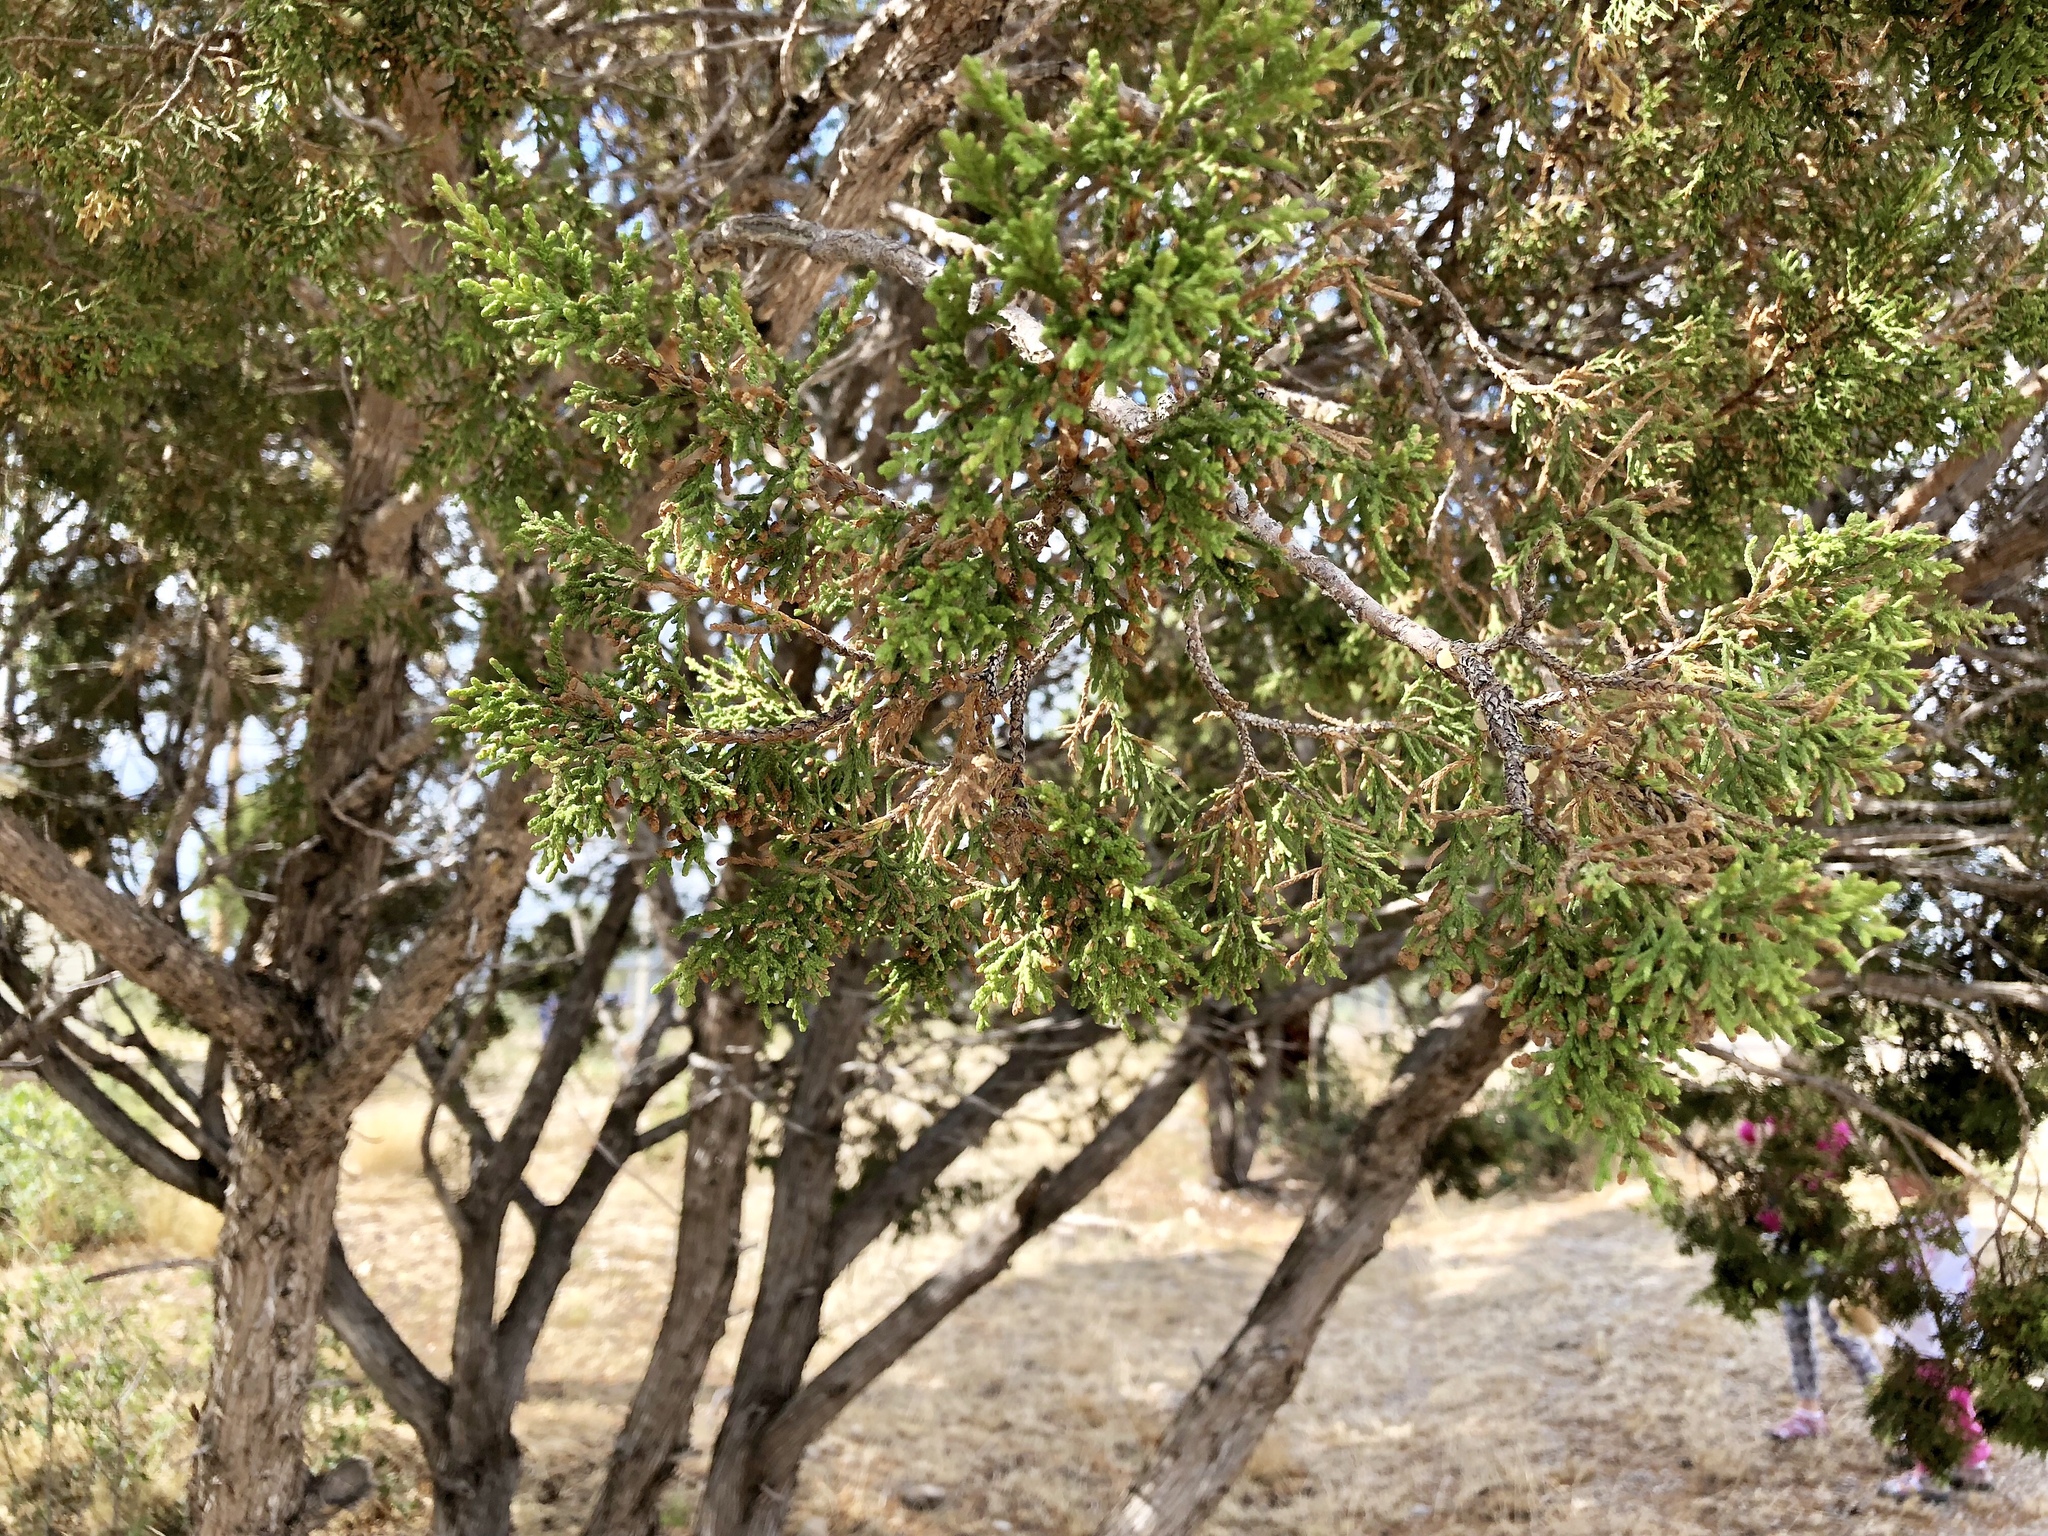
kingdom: Plantae
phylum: Tracheophyta
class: Pinopsida
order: Pinales
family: Cupressaceae
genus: Juniperus
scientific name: Juniperus monosperma
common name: One-seed juniper
